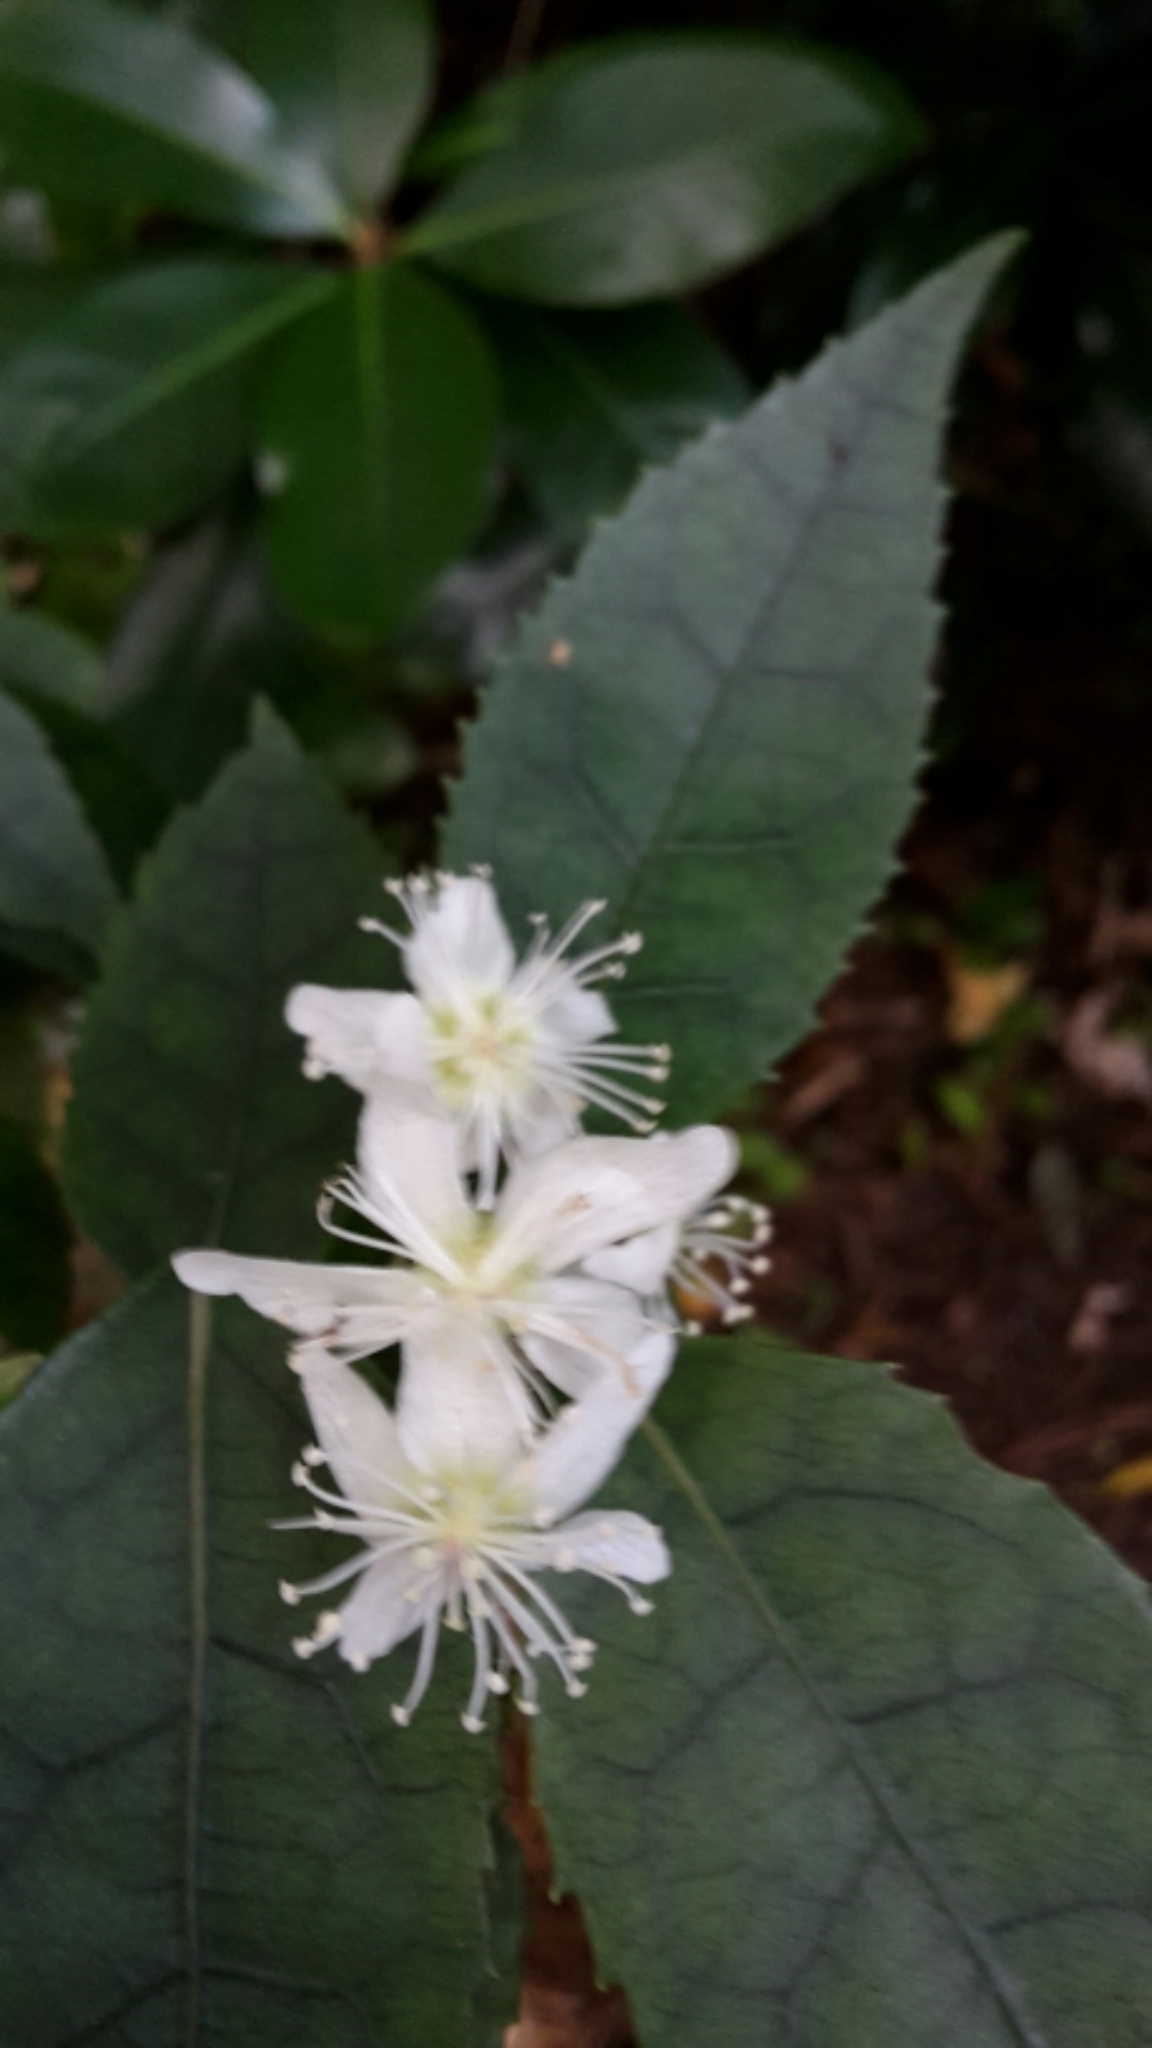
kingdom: Plantae
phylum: Tracheophyta
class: Magnoliopsida
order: Malvales
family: Malvaceae
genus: Hoheria
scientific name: Hoheria populnea
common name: Lacebark
